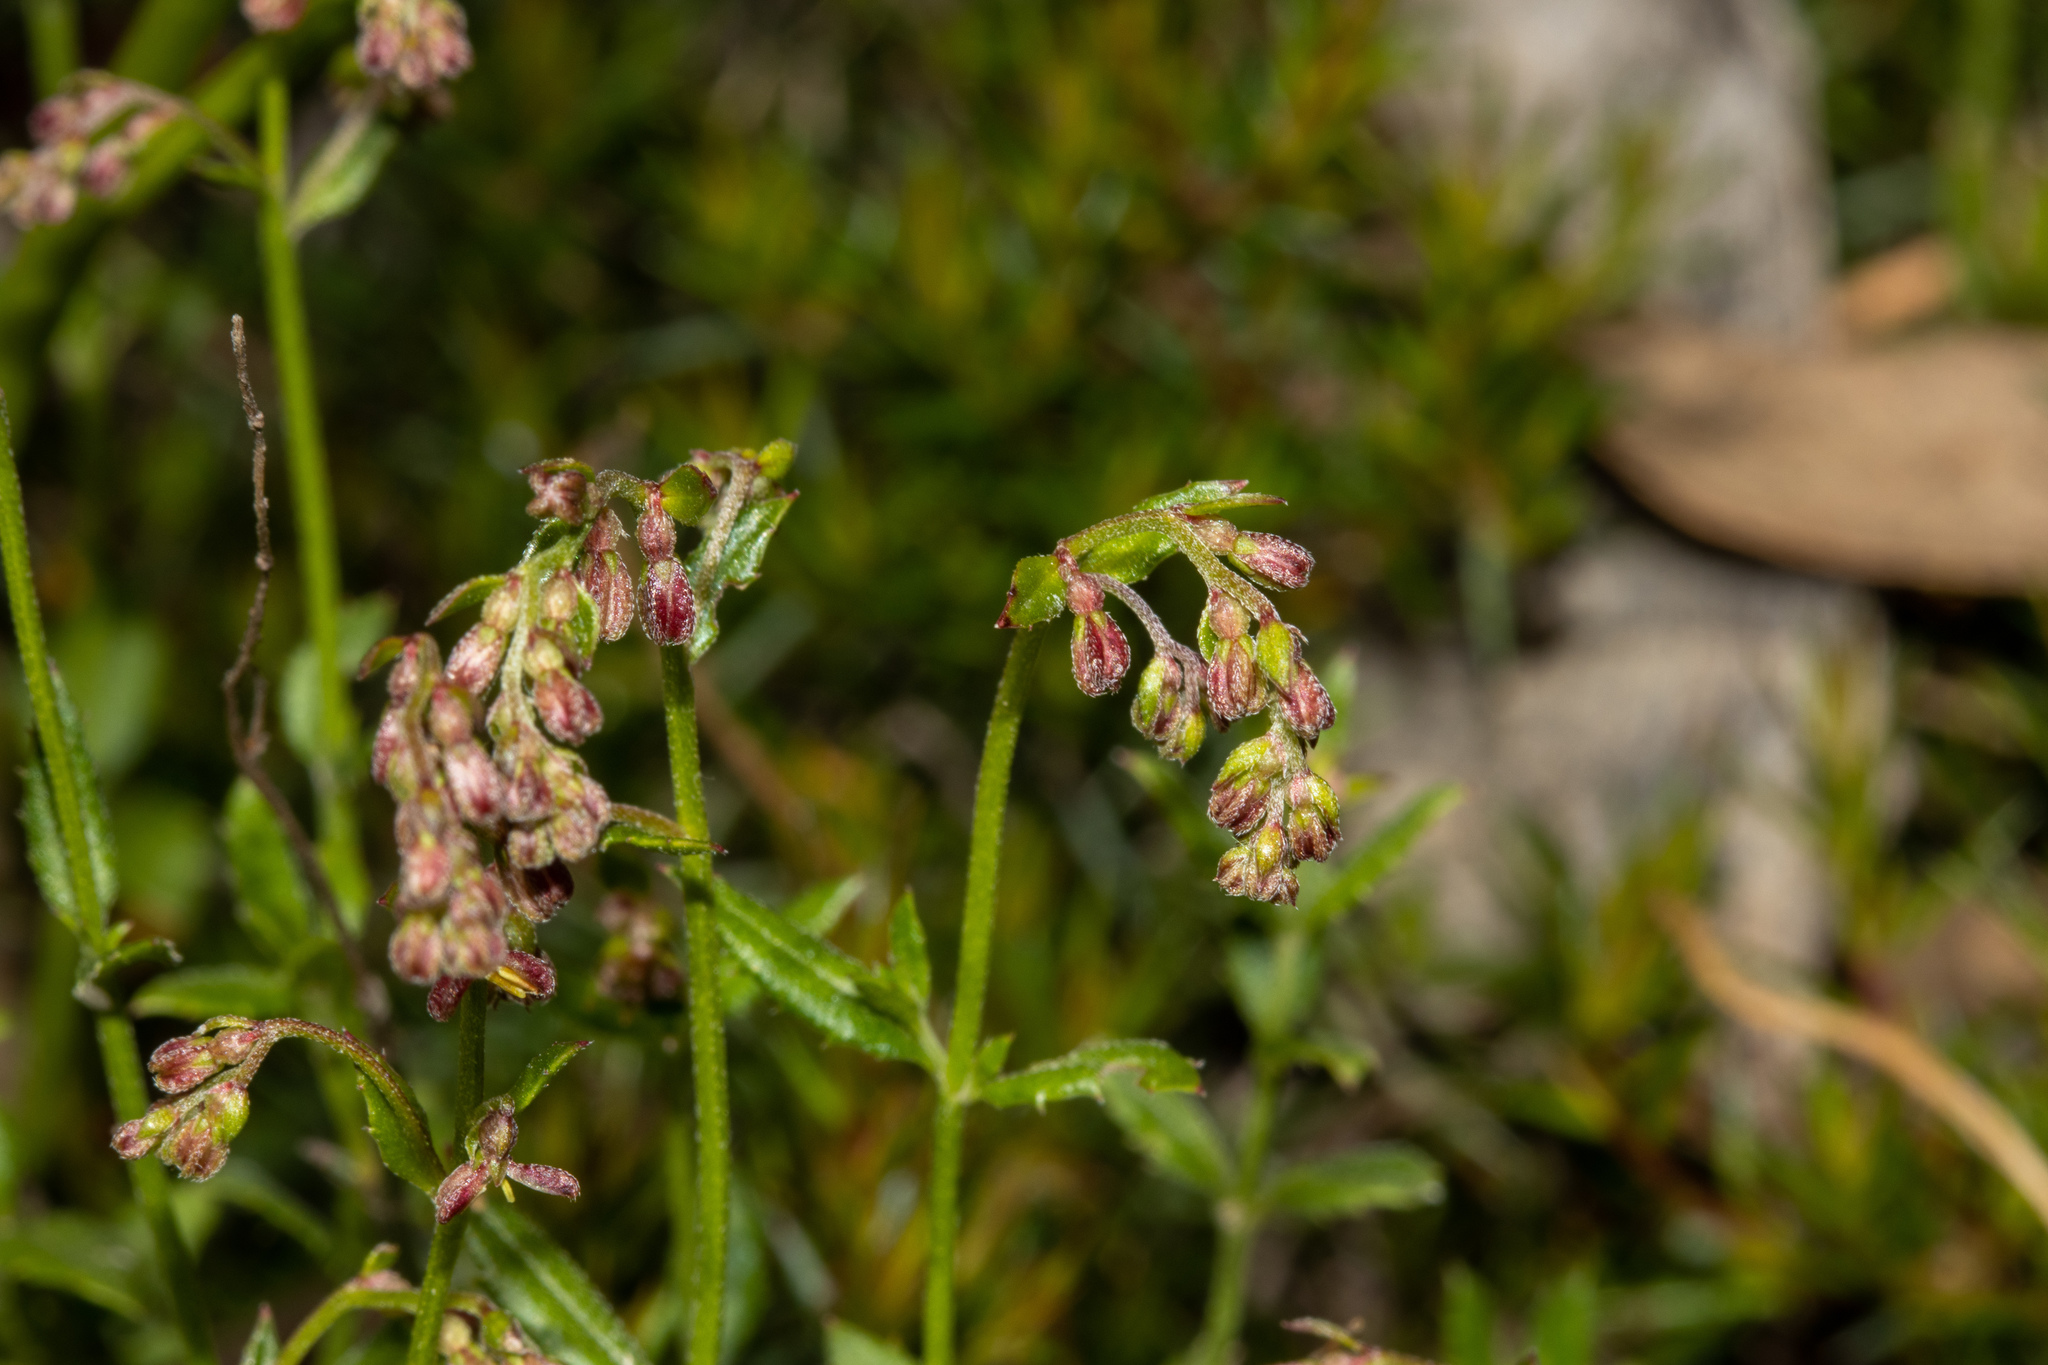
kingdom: Plantae
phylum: Tracheophyta
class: Magnoliopsida
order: Saxifragales
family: Haloragaceae
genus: Gonocarpus
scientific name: Gonocarpus tetragynus
